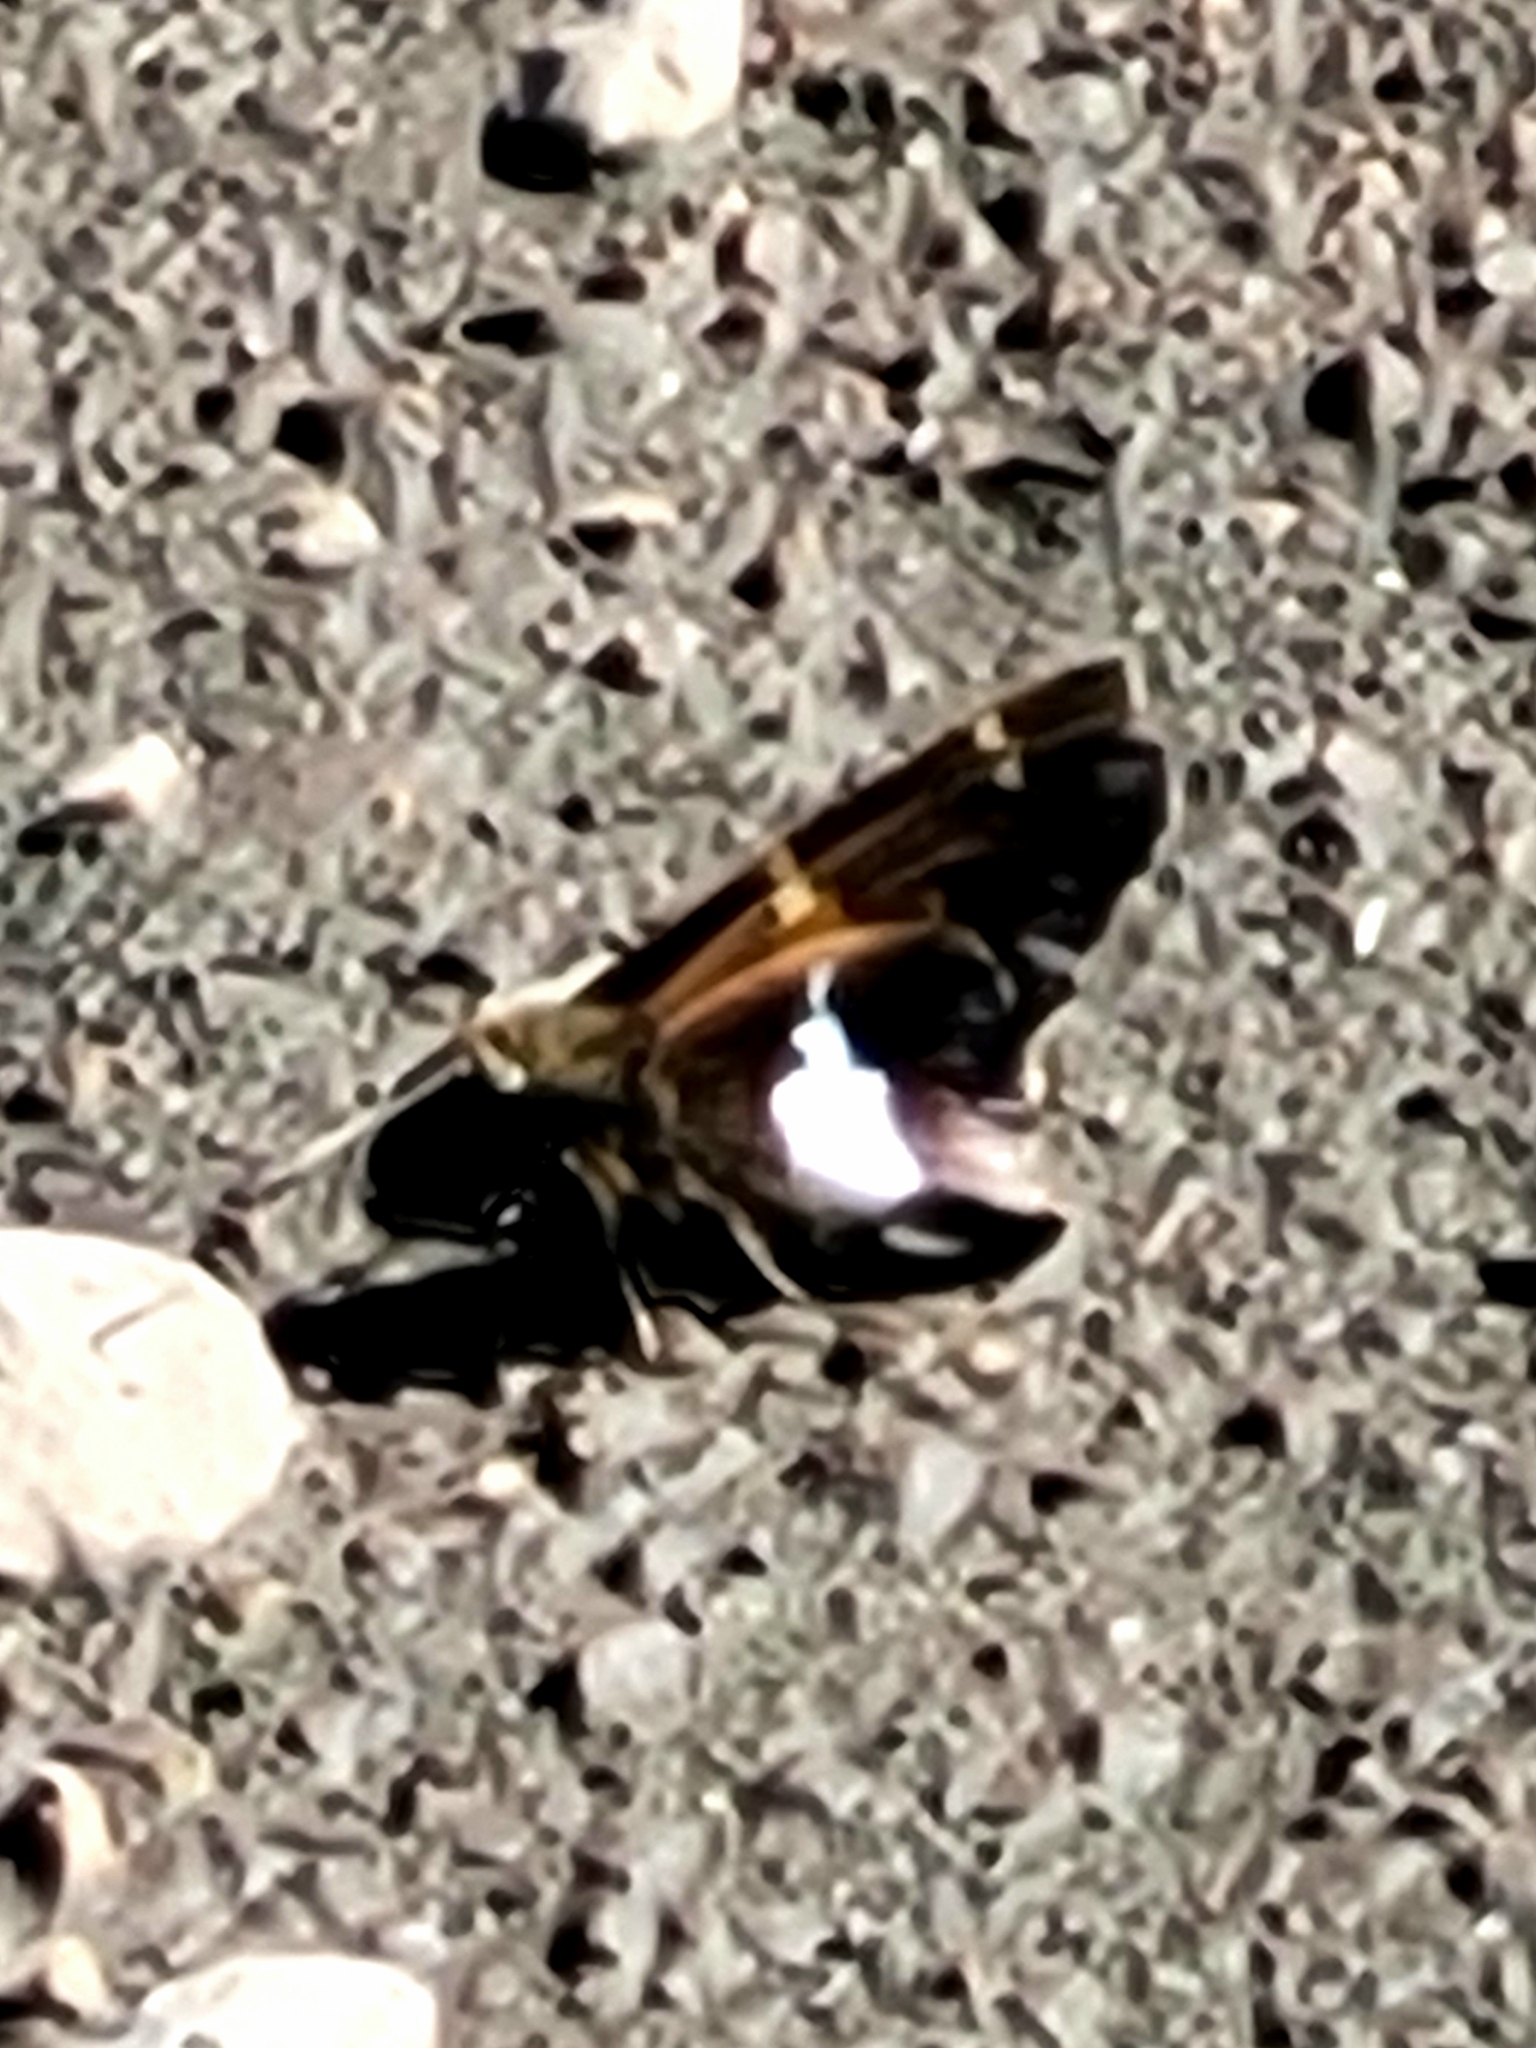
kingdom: Animalia
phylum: Arthropoda
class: Insecta
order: Lepidoptera
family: Hesperiidae
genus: Epargyreus
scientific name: Epargyreus clarus
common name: Silver-spotted skipper
